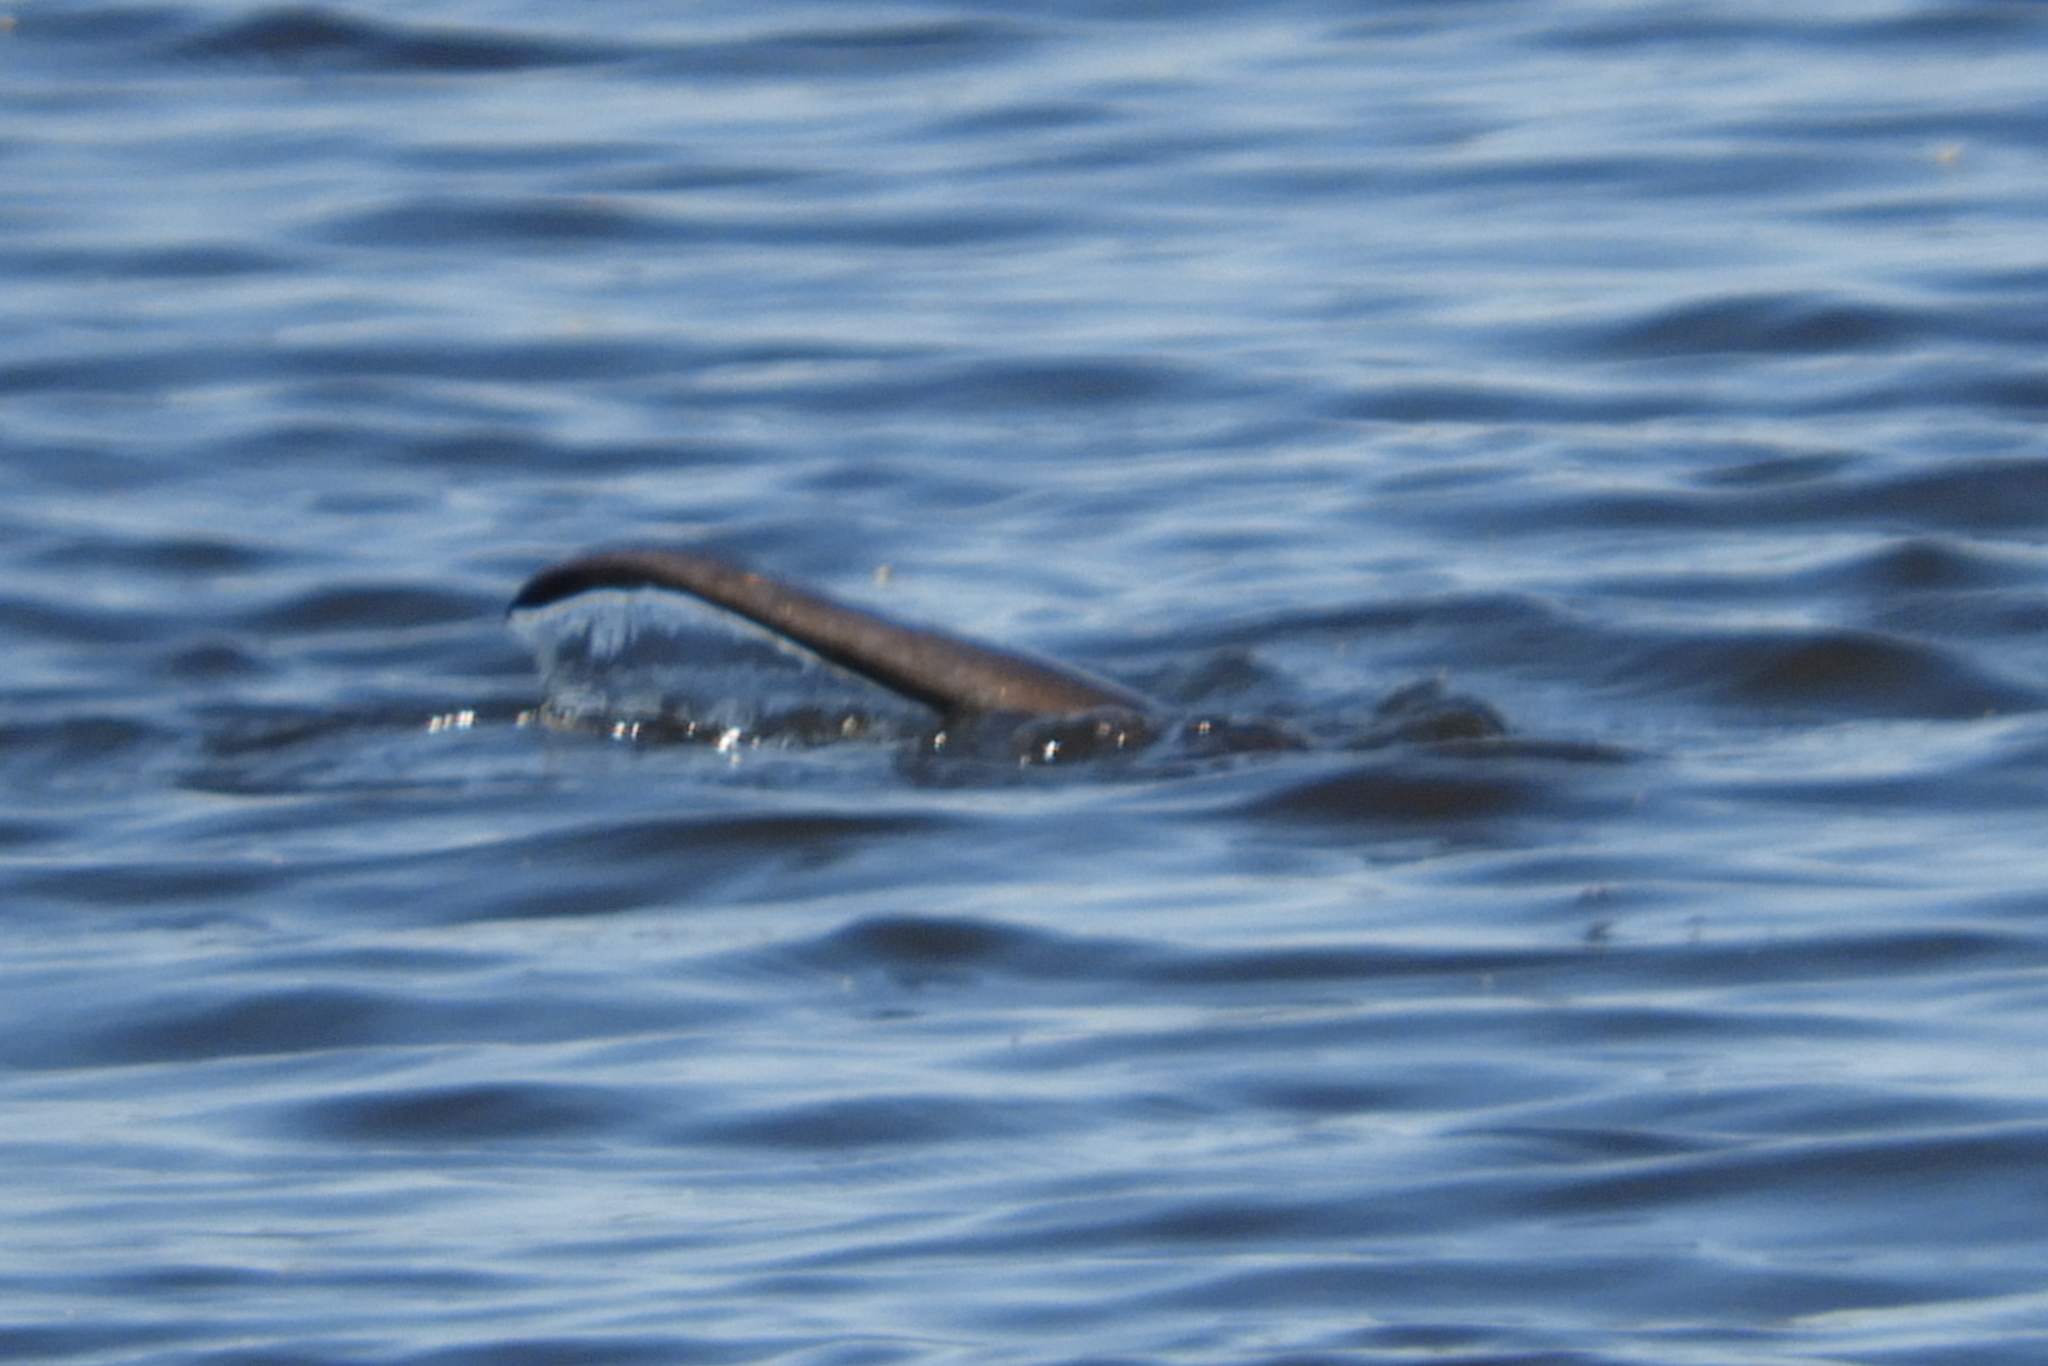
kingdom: Animalia
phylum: Chordata
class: Mammalia
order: Carnivora
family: Mustelidae
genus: Lontra
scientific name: Lontra canadensis
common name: North american river otter
